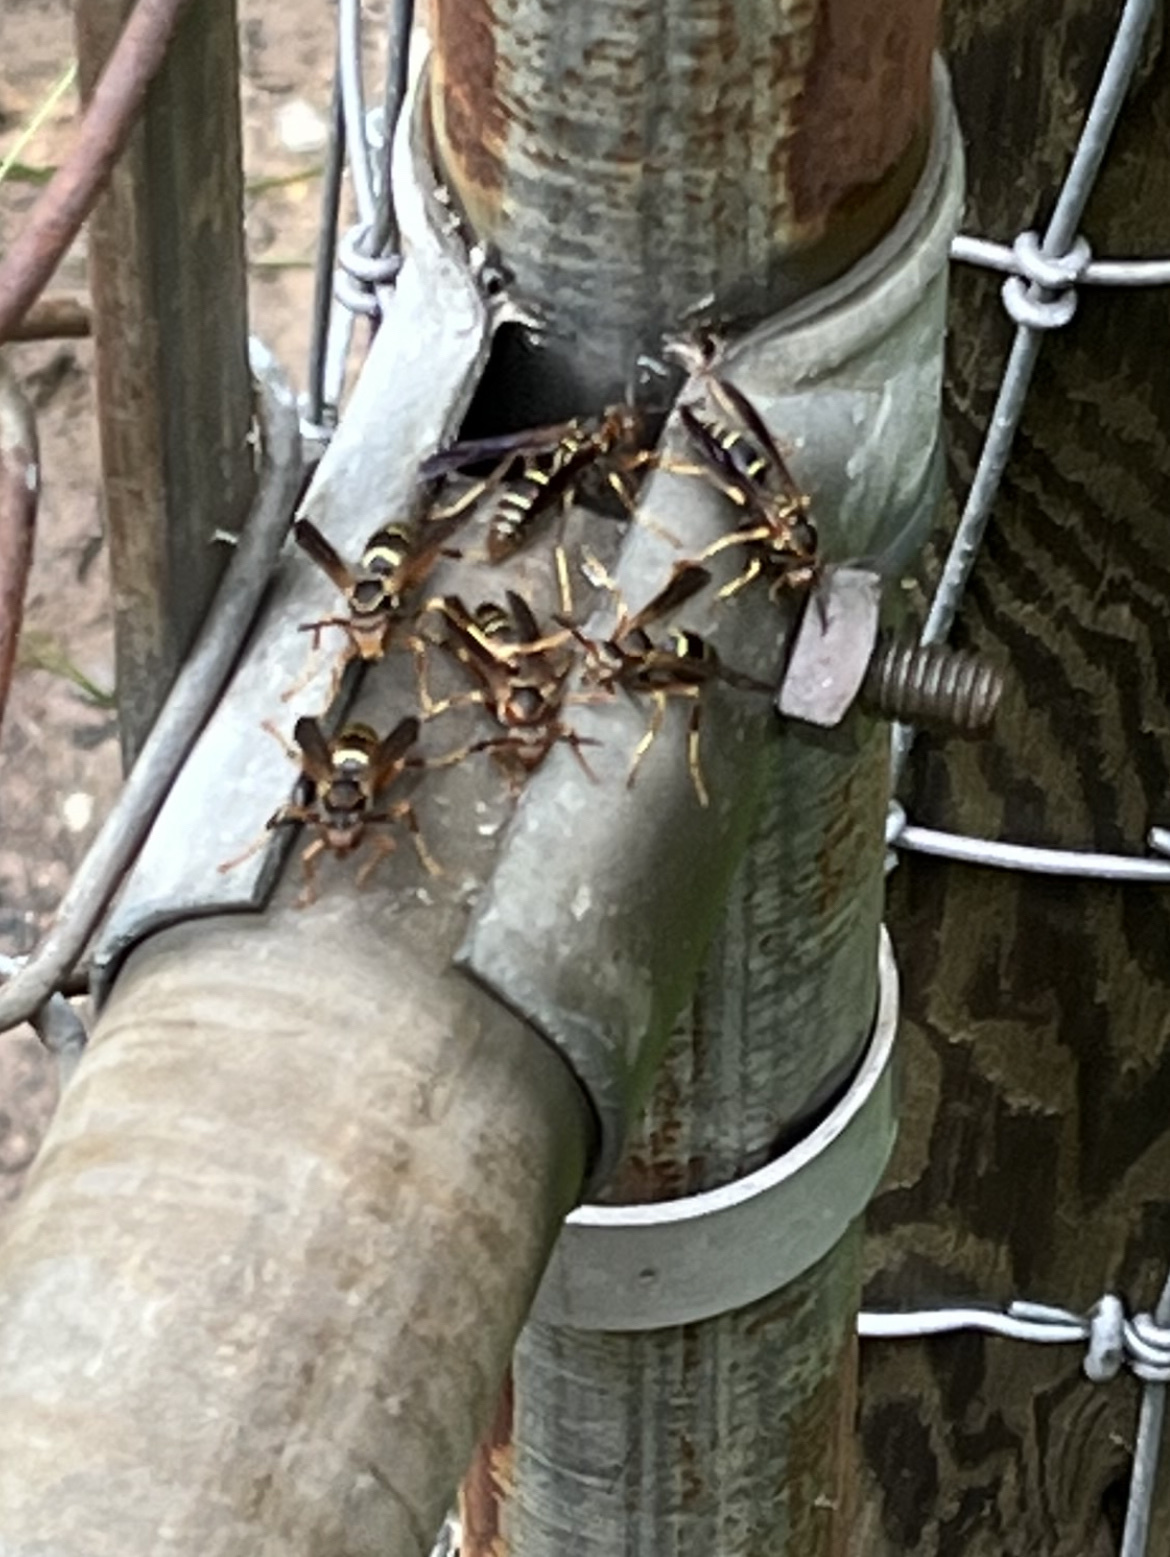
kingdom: Animalia
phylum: Arthropoda
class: Insecta
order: Hymenoptera
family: Eumenidae
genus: Polistes
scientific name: Polistes fuscatus
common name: Dark paper wasp
